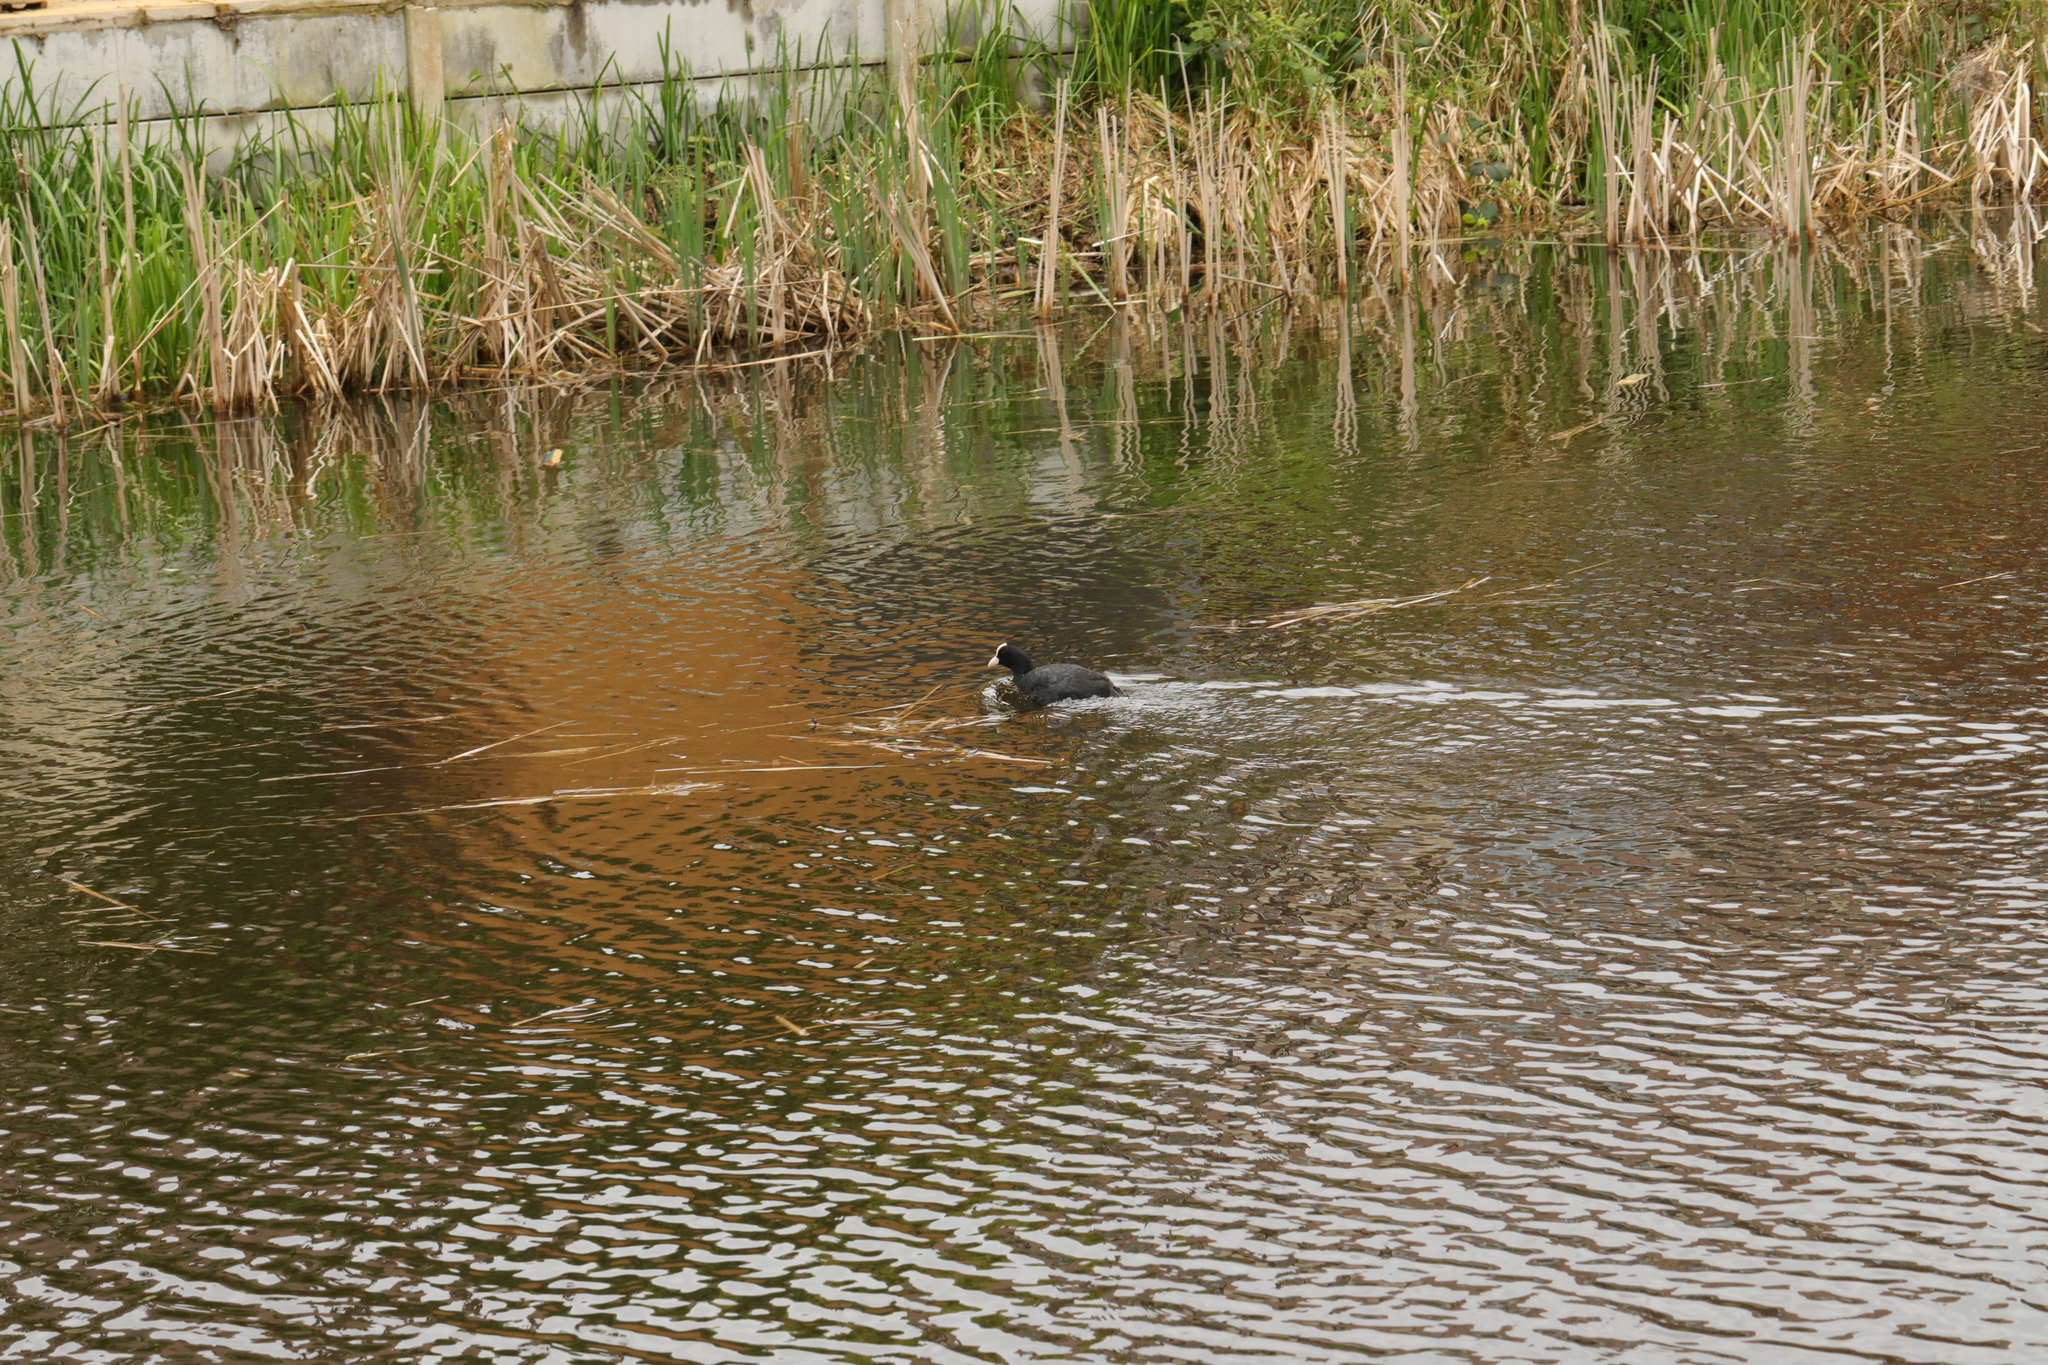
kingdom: Animalia
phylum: Chordata
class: Aves
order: Gruiformes
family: Rallidae
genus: Fulica
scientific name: Fulica atra
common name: Eurasian coot
